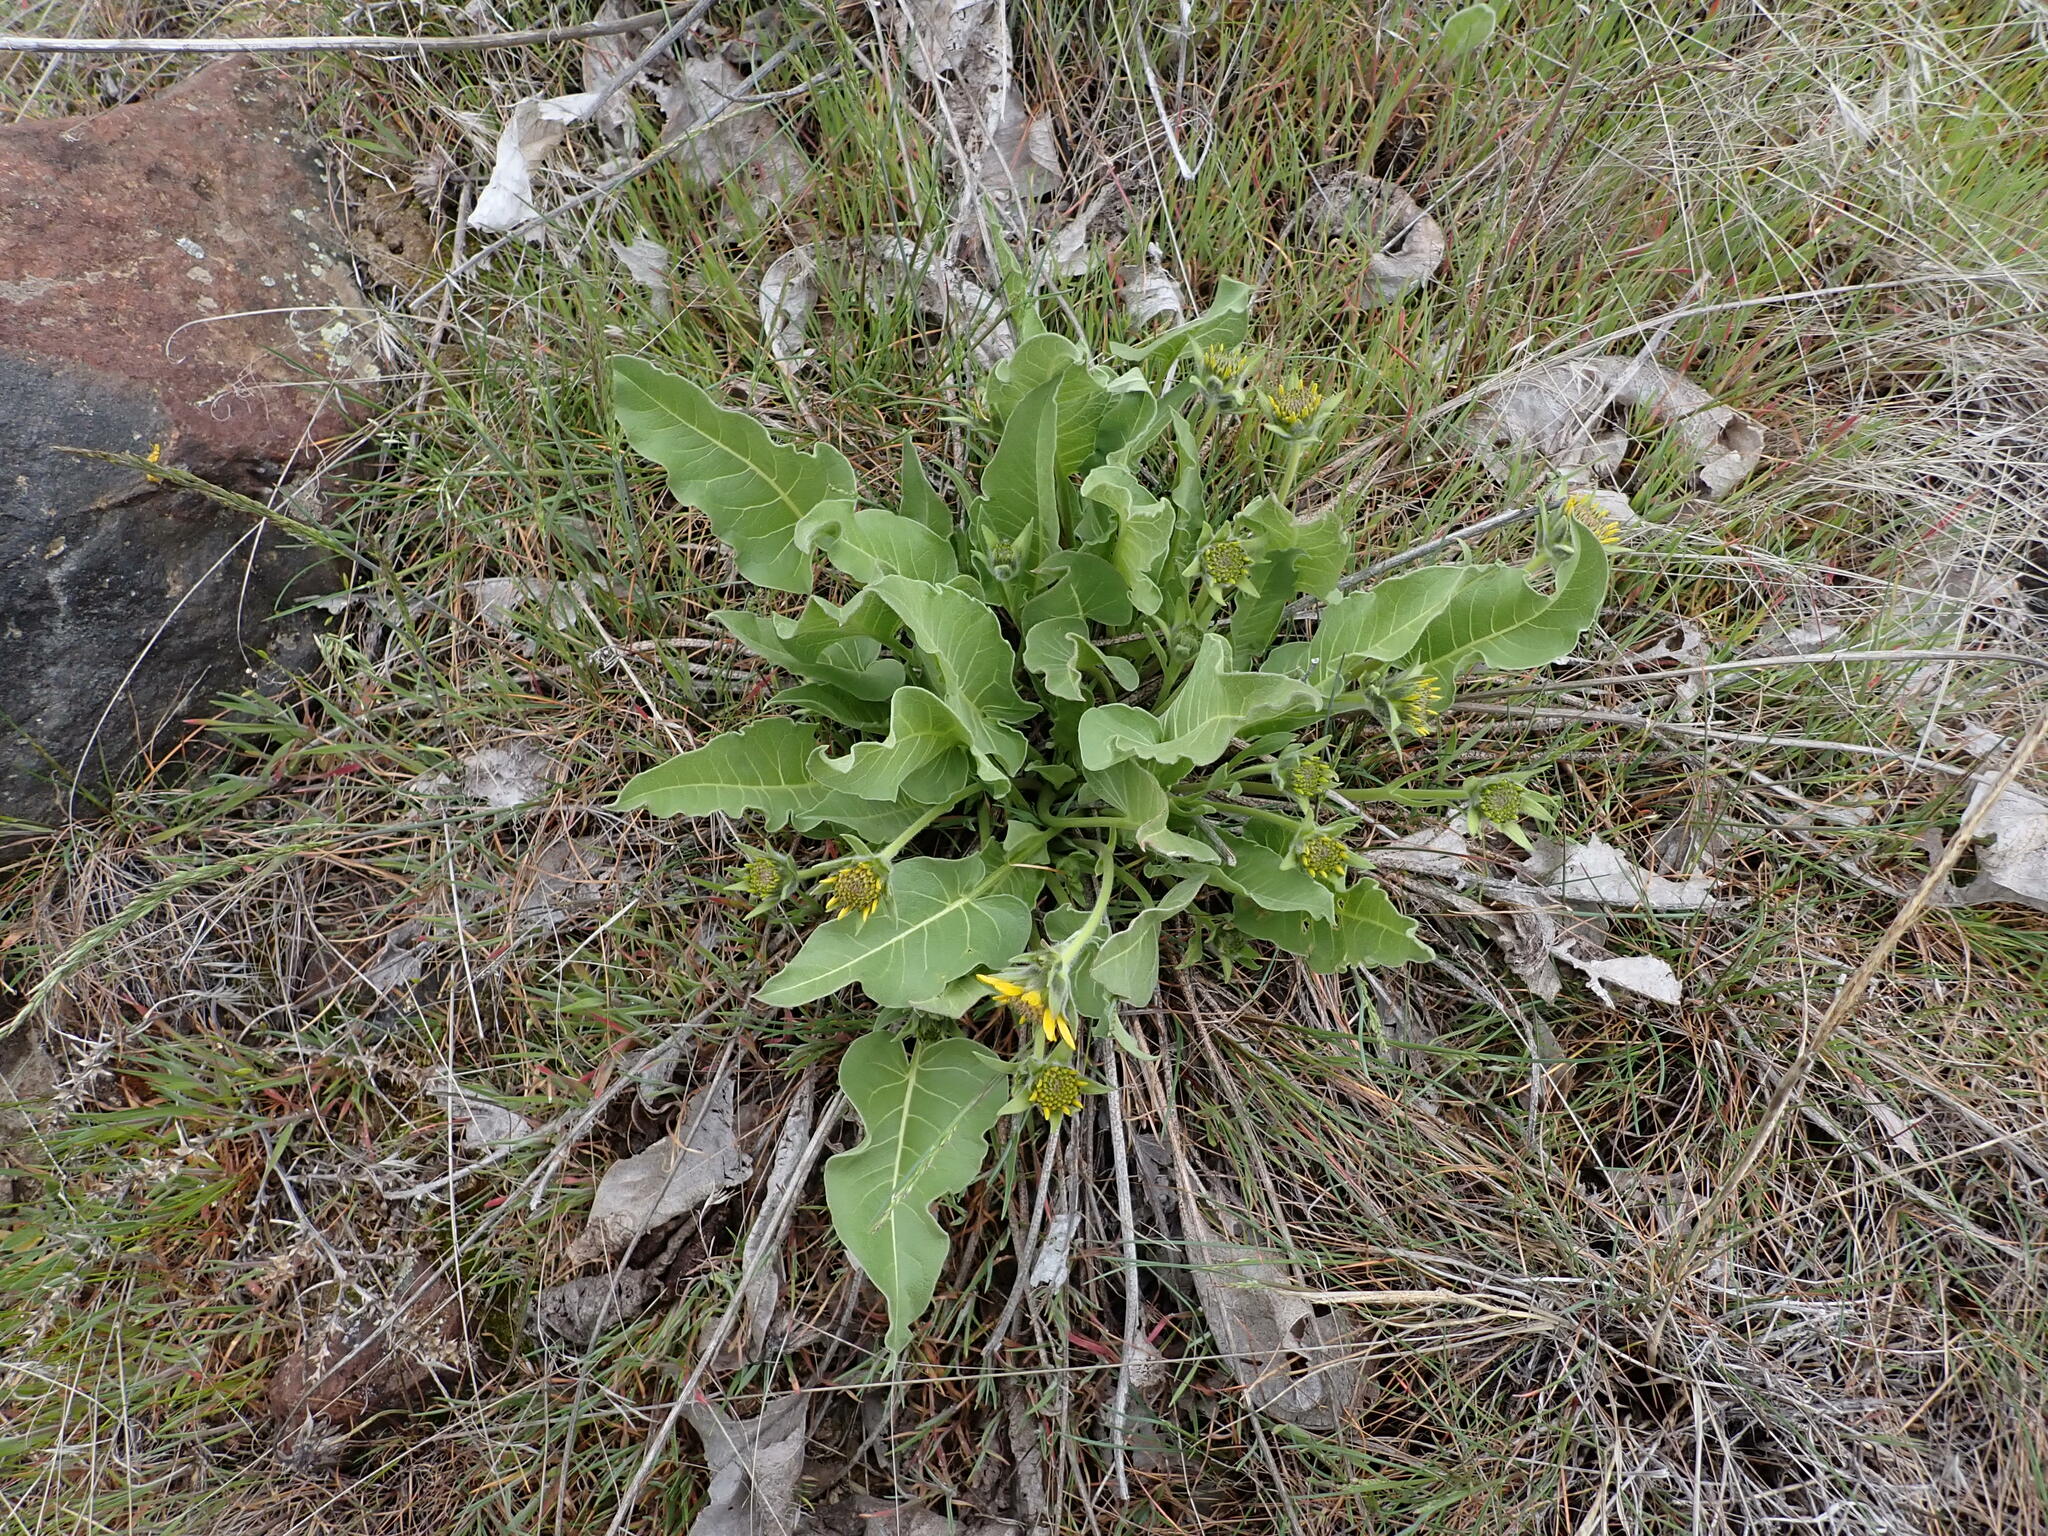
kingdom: Plantae
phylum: Tracheophyta
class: Magnoliopsida
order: Asterales
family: Asteraceae
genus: Balsamorhiza
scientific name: Balsamorhiza careyana
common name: Carey's balsamroot
